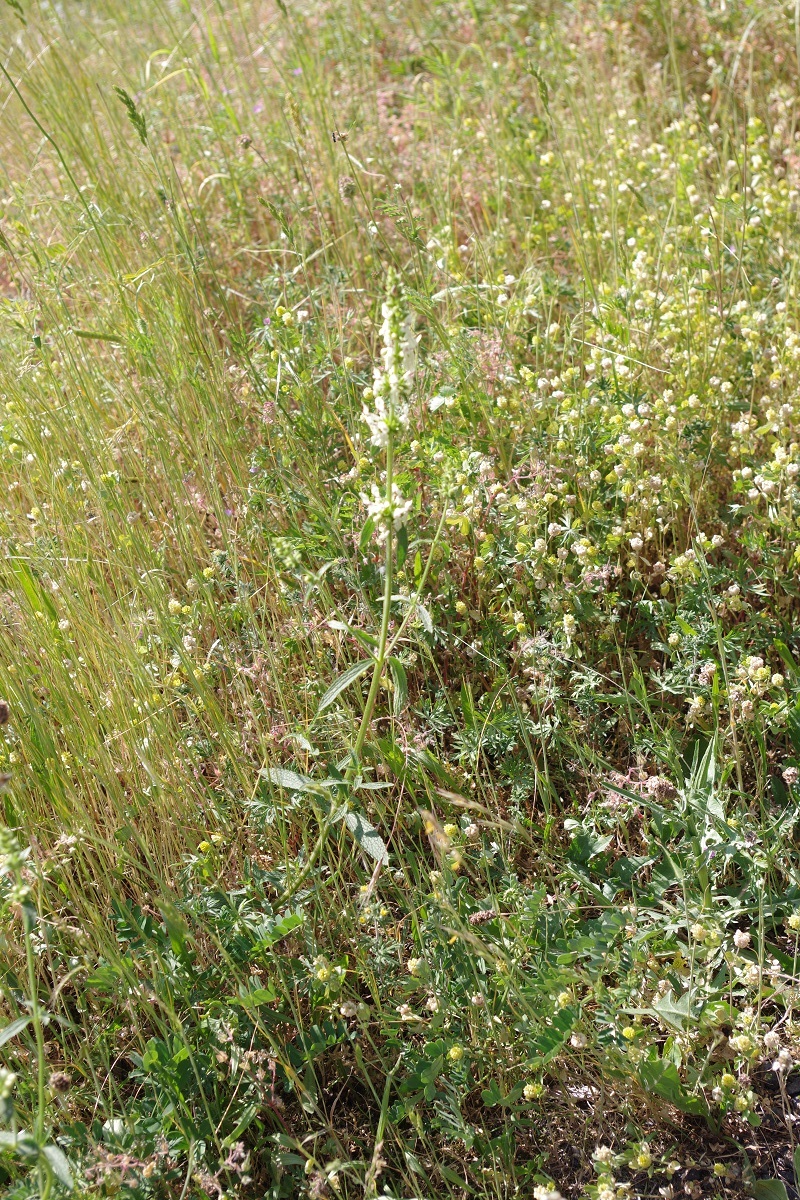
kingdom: Plantae
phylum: Tracheophyta
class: Magnoliopsida
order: Lamiales
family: Lamiaceae
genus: Stachys
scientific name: Stachys recta
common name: Perennial yellow-woundwort
